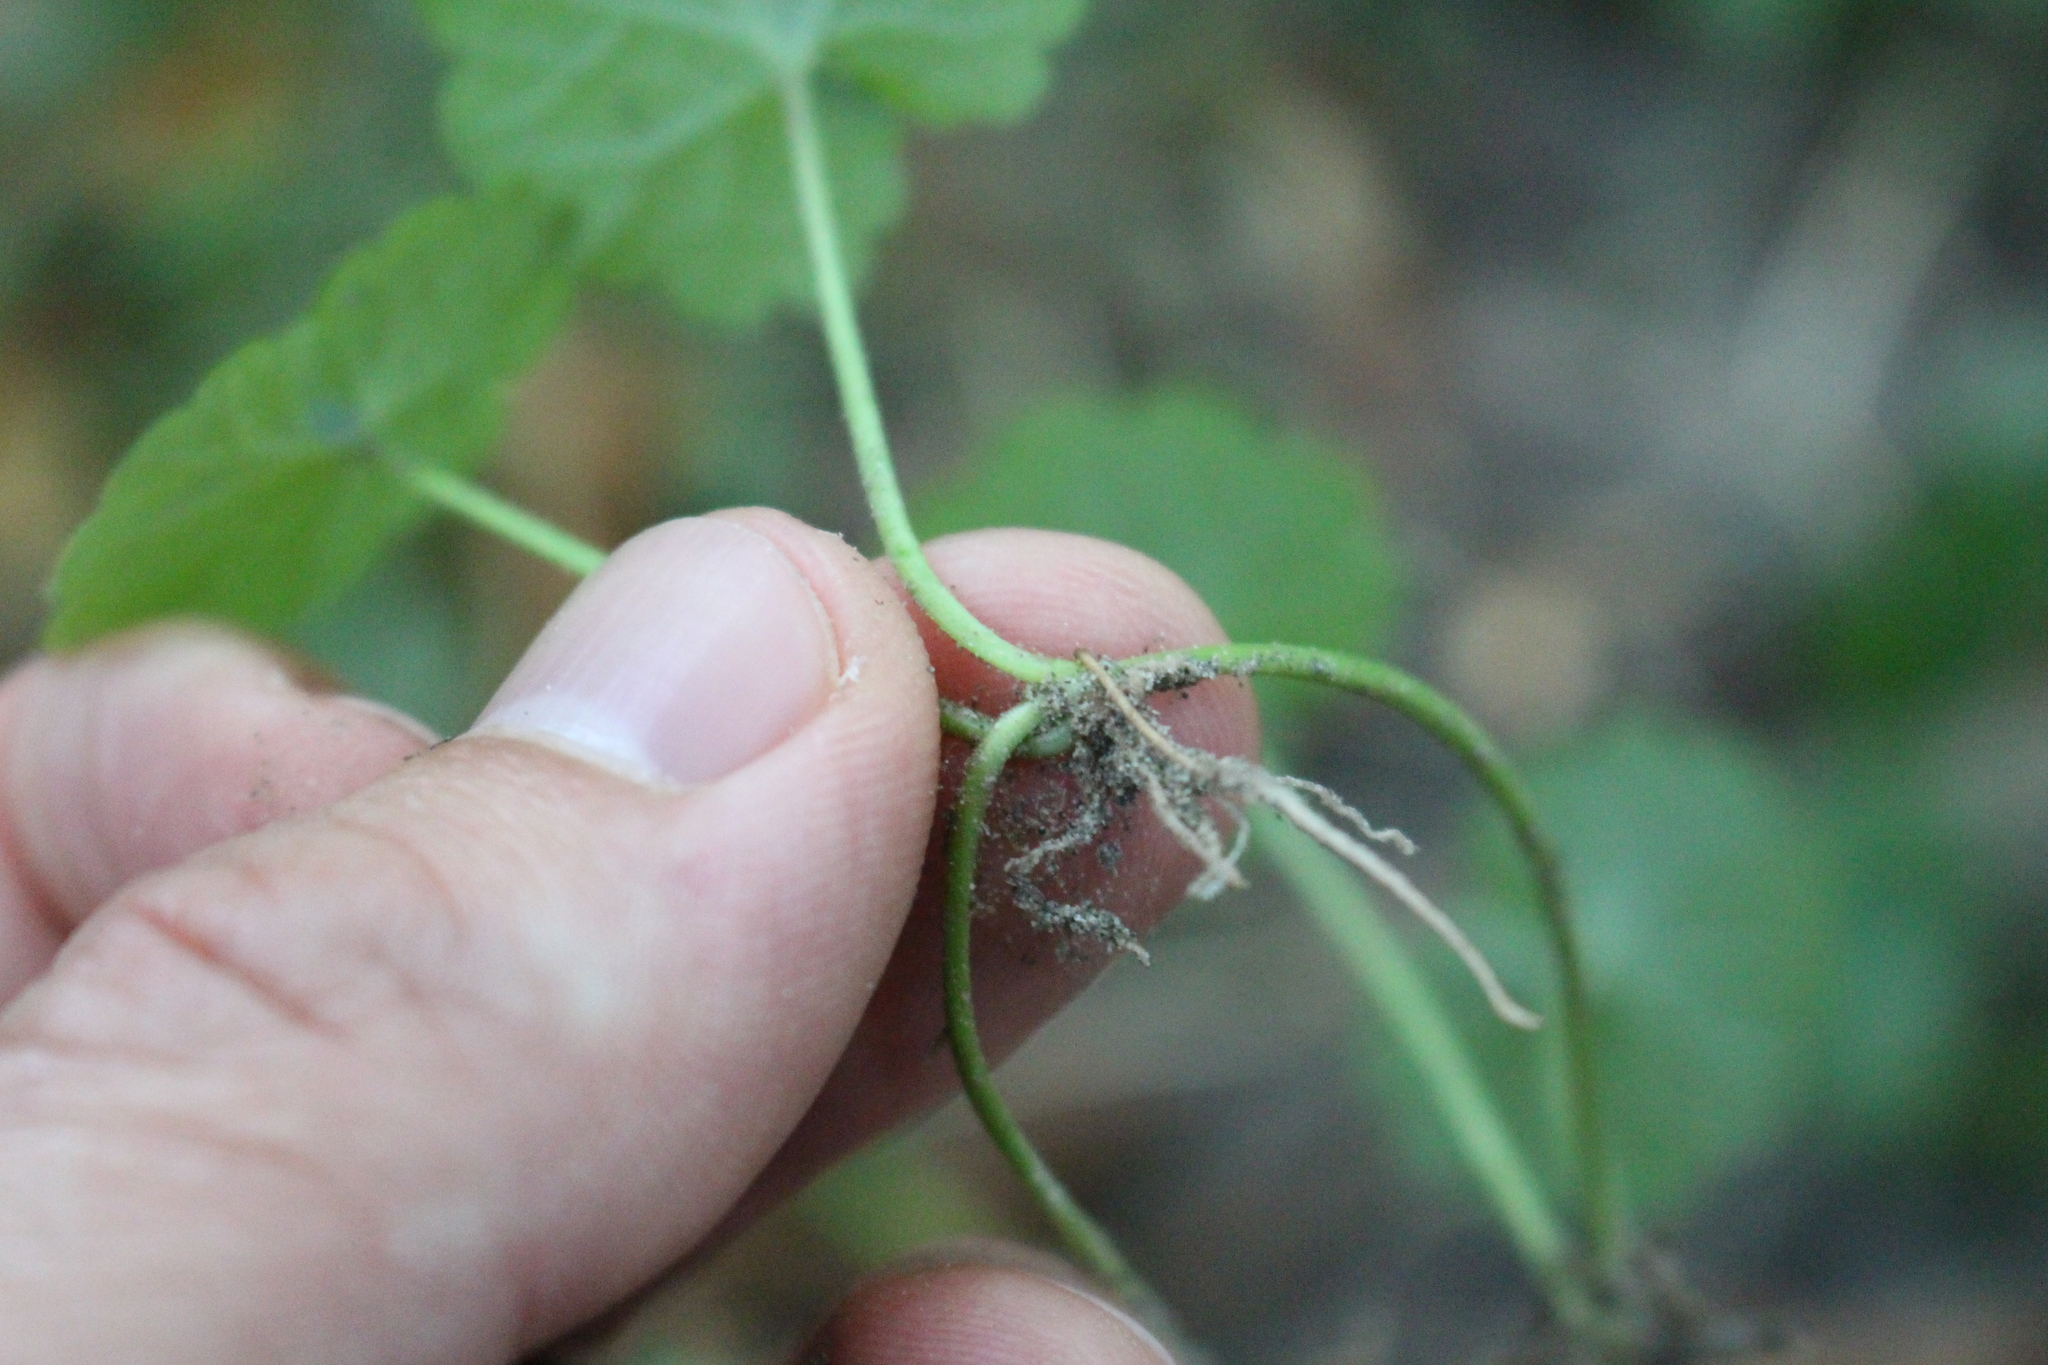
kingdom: Plantae
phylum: Tracheophyta
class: Magnoliopsida
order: Lamiales
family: Lamiaceae
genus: Glechoma
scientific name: Glechoma hederacea
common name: Ground ivy
